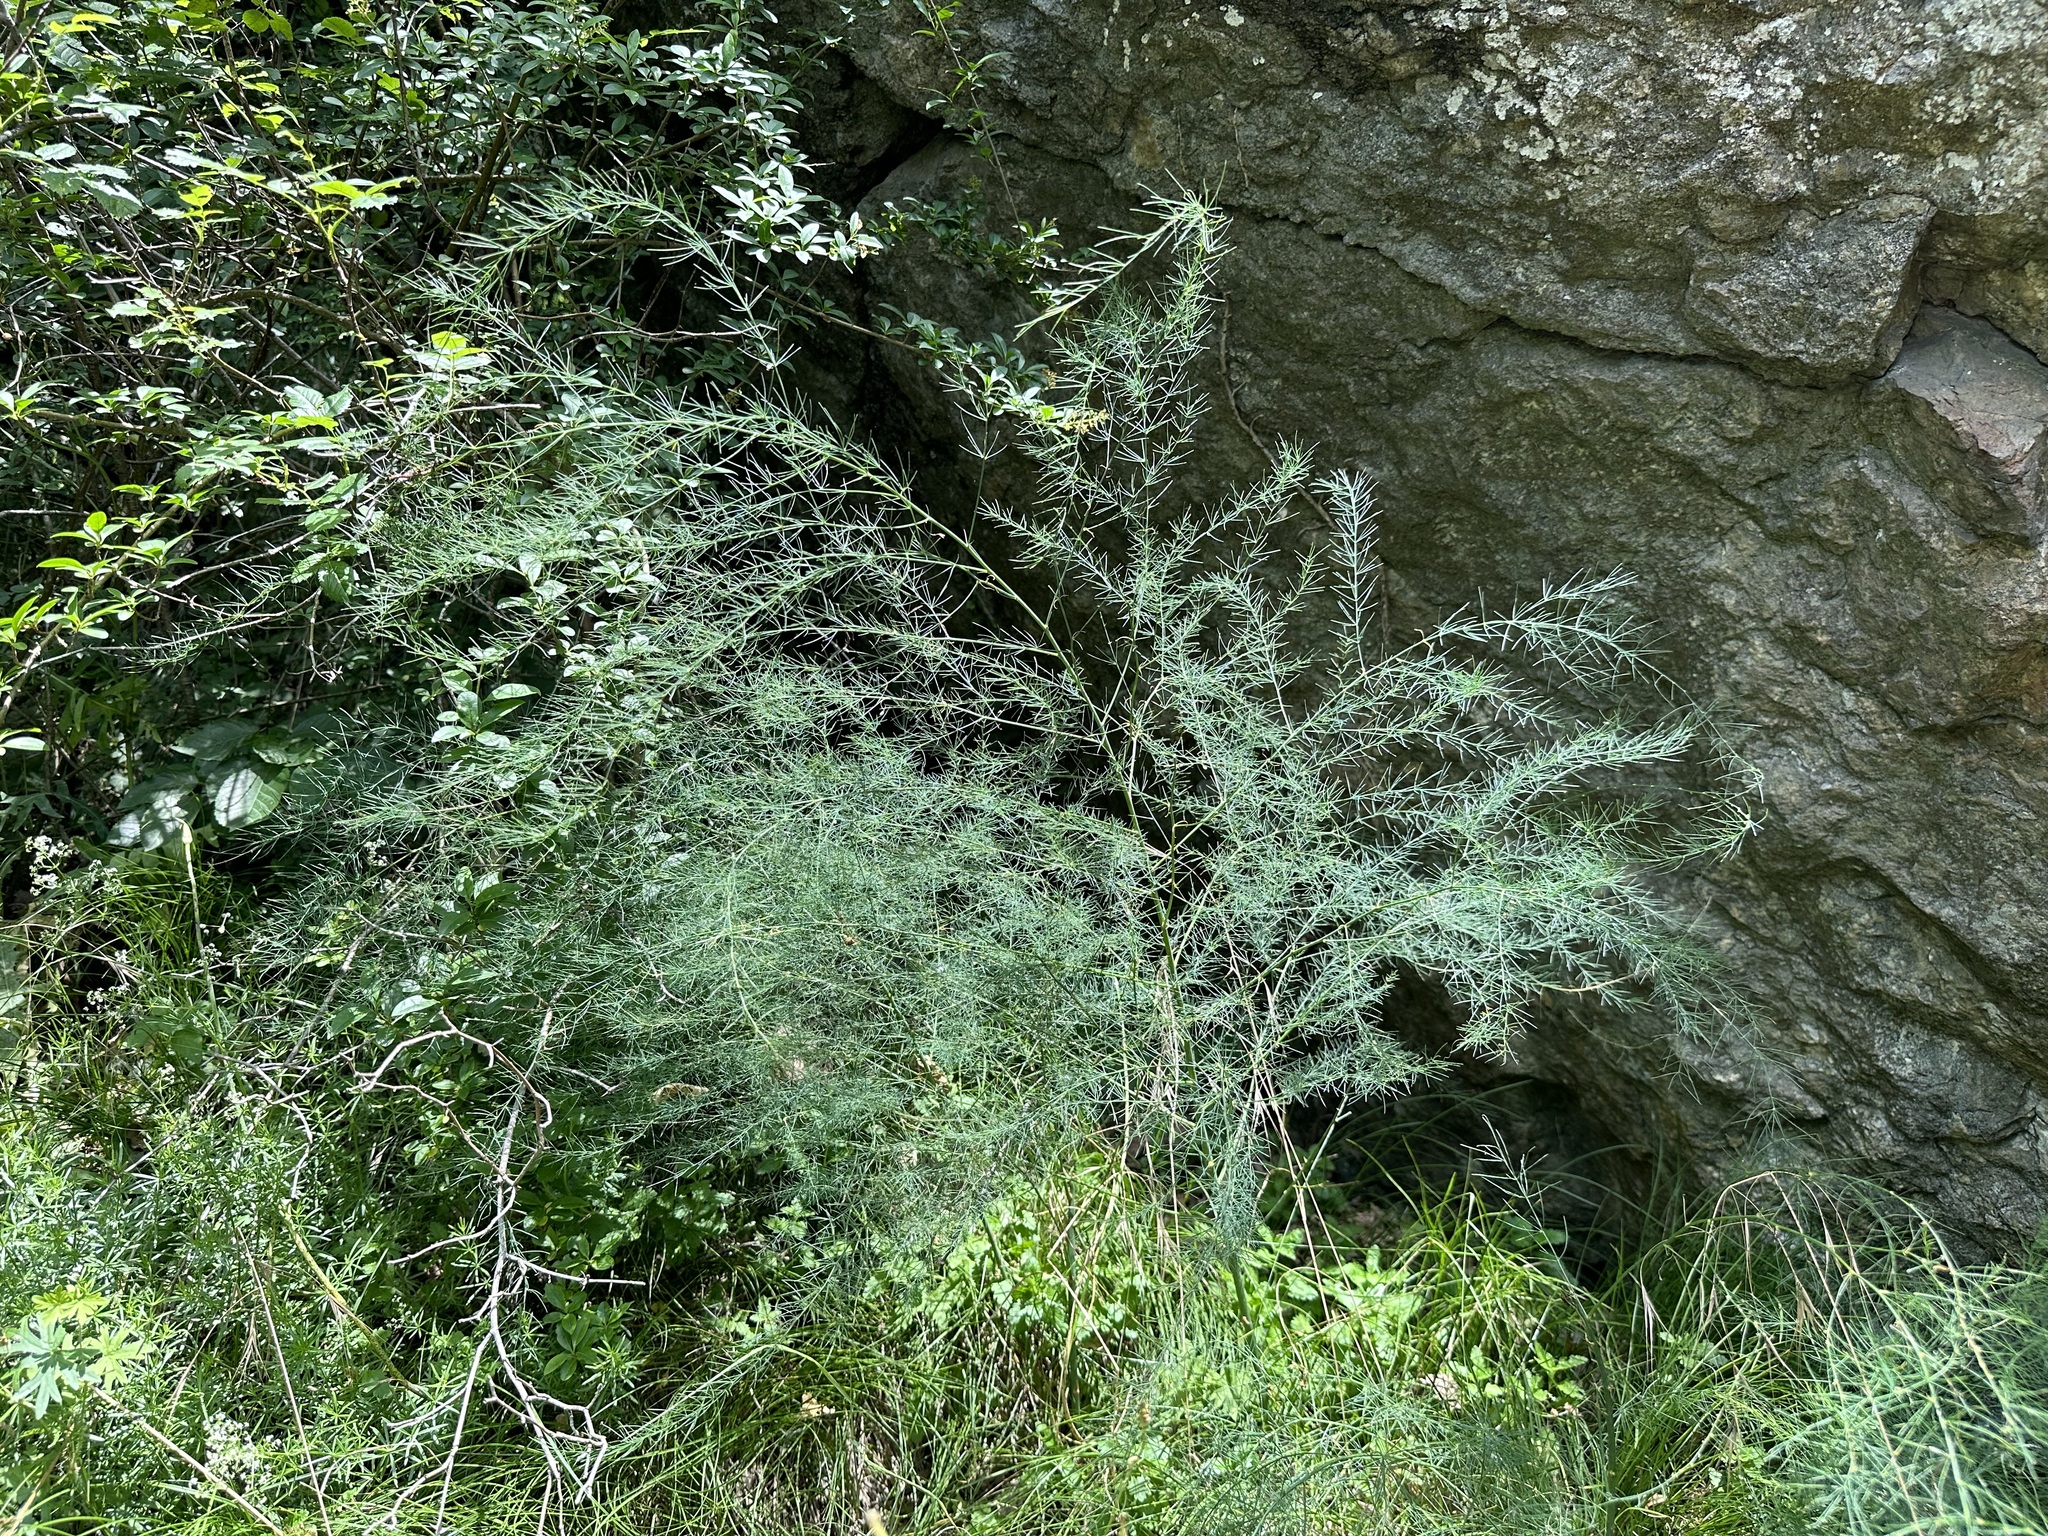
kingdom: Plantae
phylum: Tracheophyta
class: Liliopsida
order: Asparagales
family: Asparagaceae
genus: Asparagus
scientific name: Asparagus officinalis
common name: Garden asparagus
